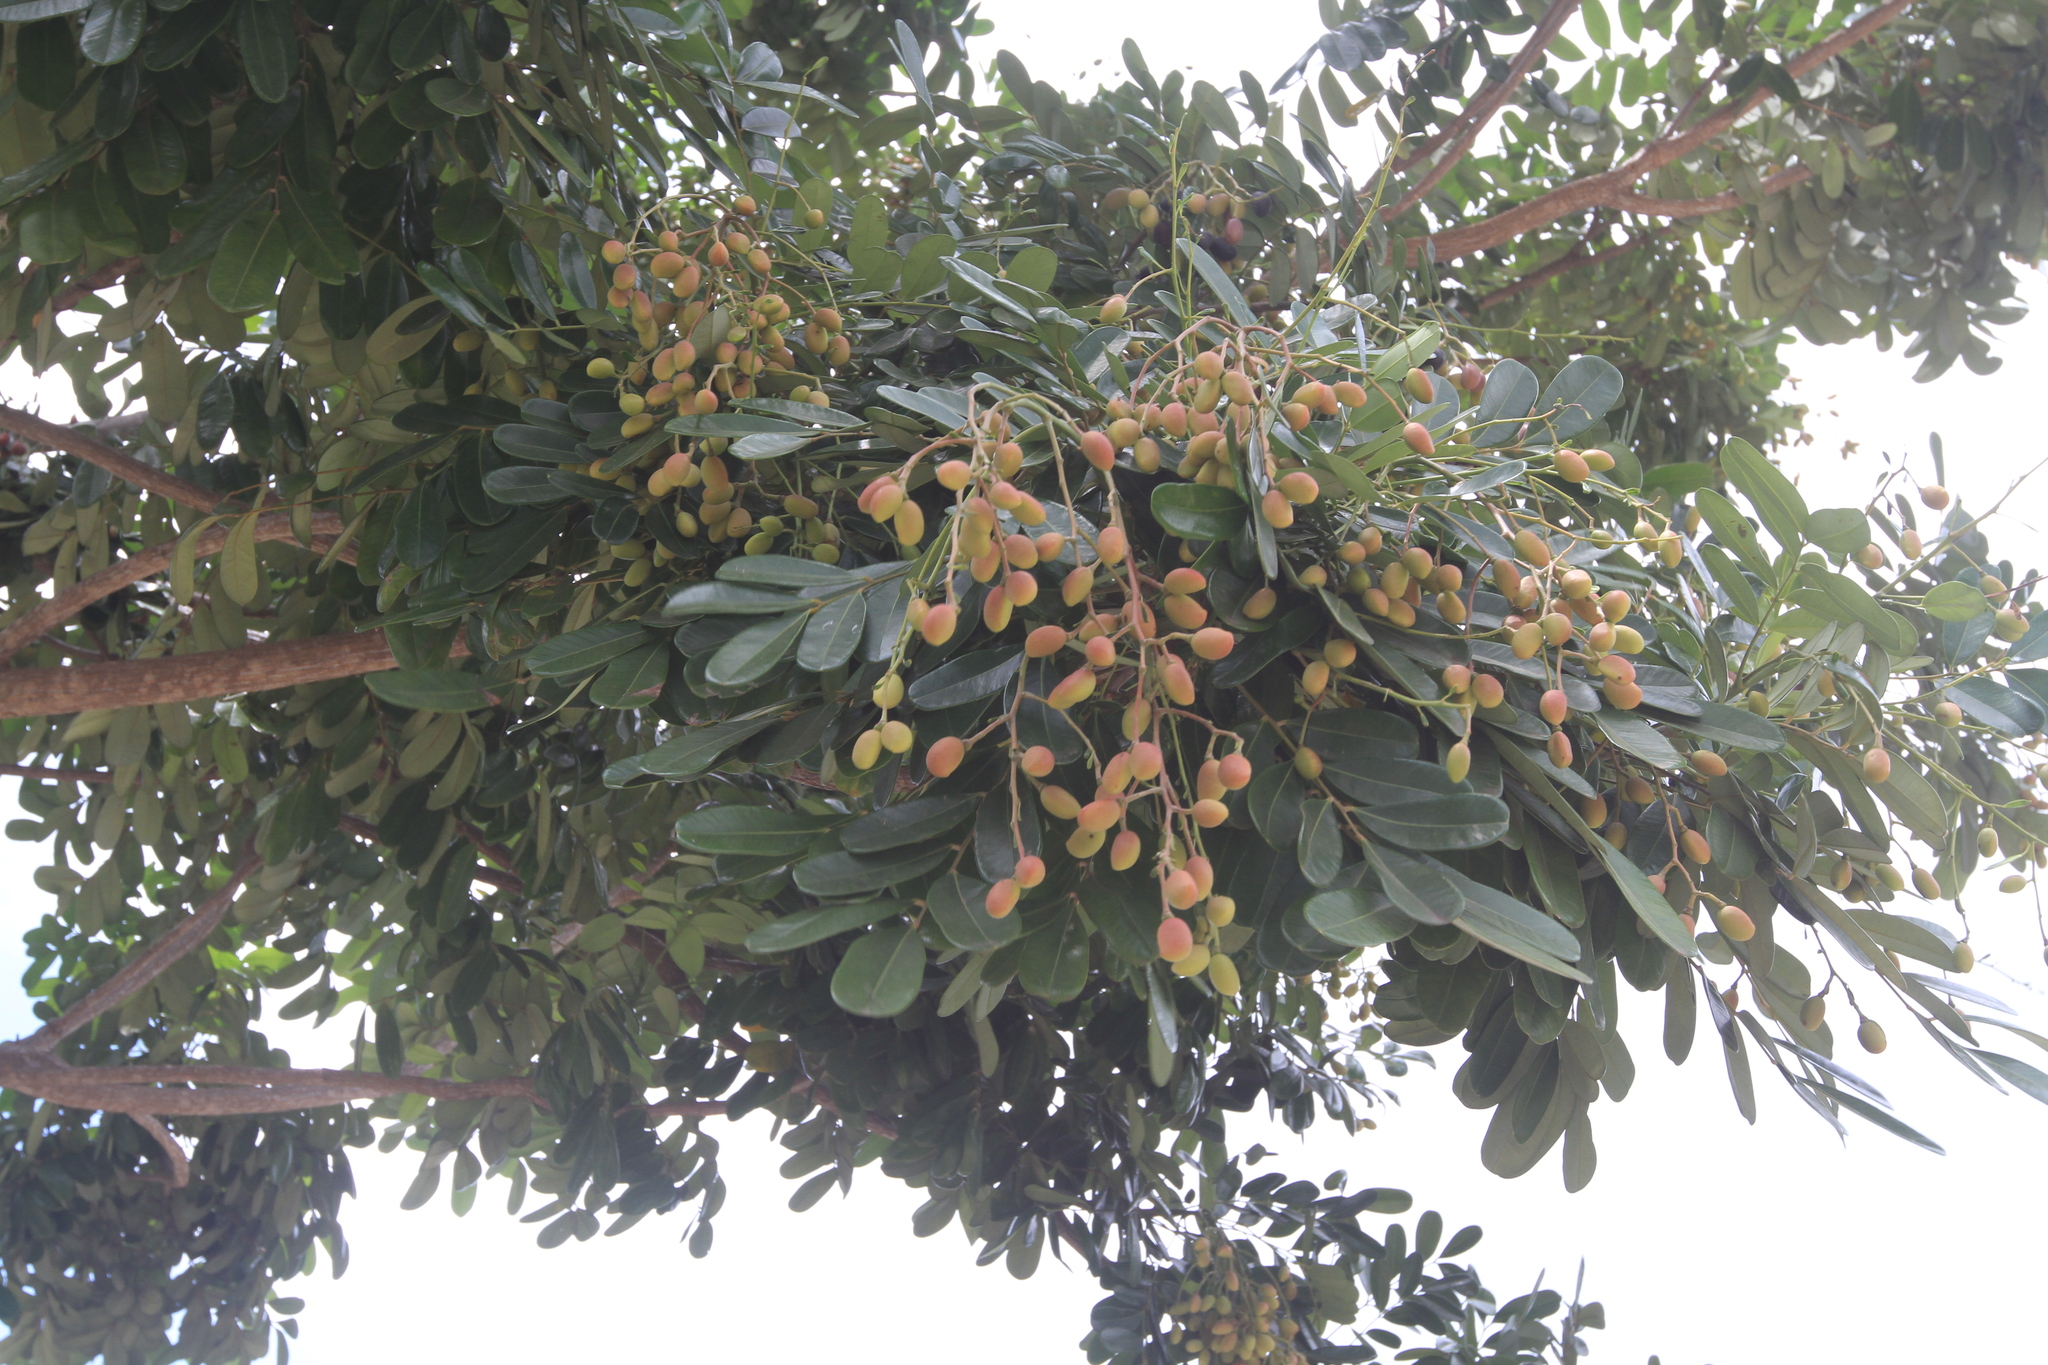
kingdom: Plantae
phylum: Tracheophyta
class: Magnoliopsida
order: Sapindales
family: Simaroubaceae
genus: Simarouba
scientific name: Simarouba amara
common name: Bitterwood
